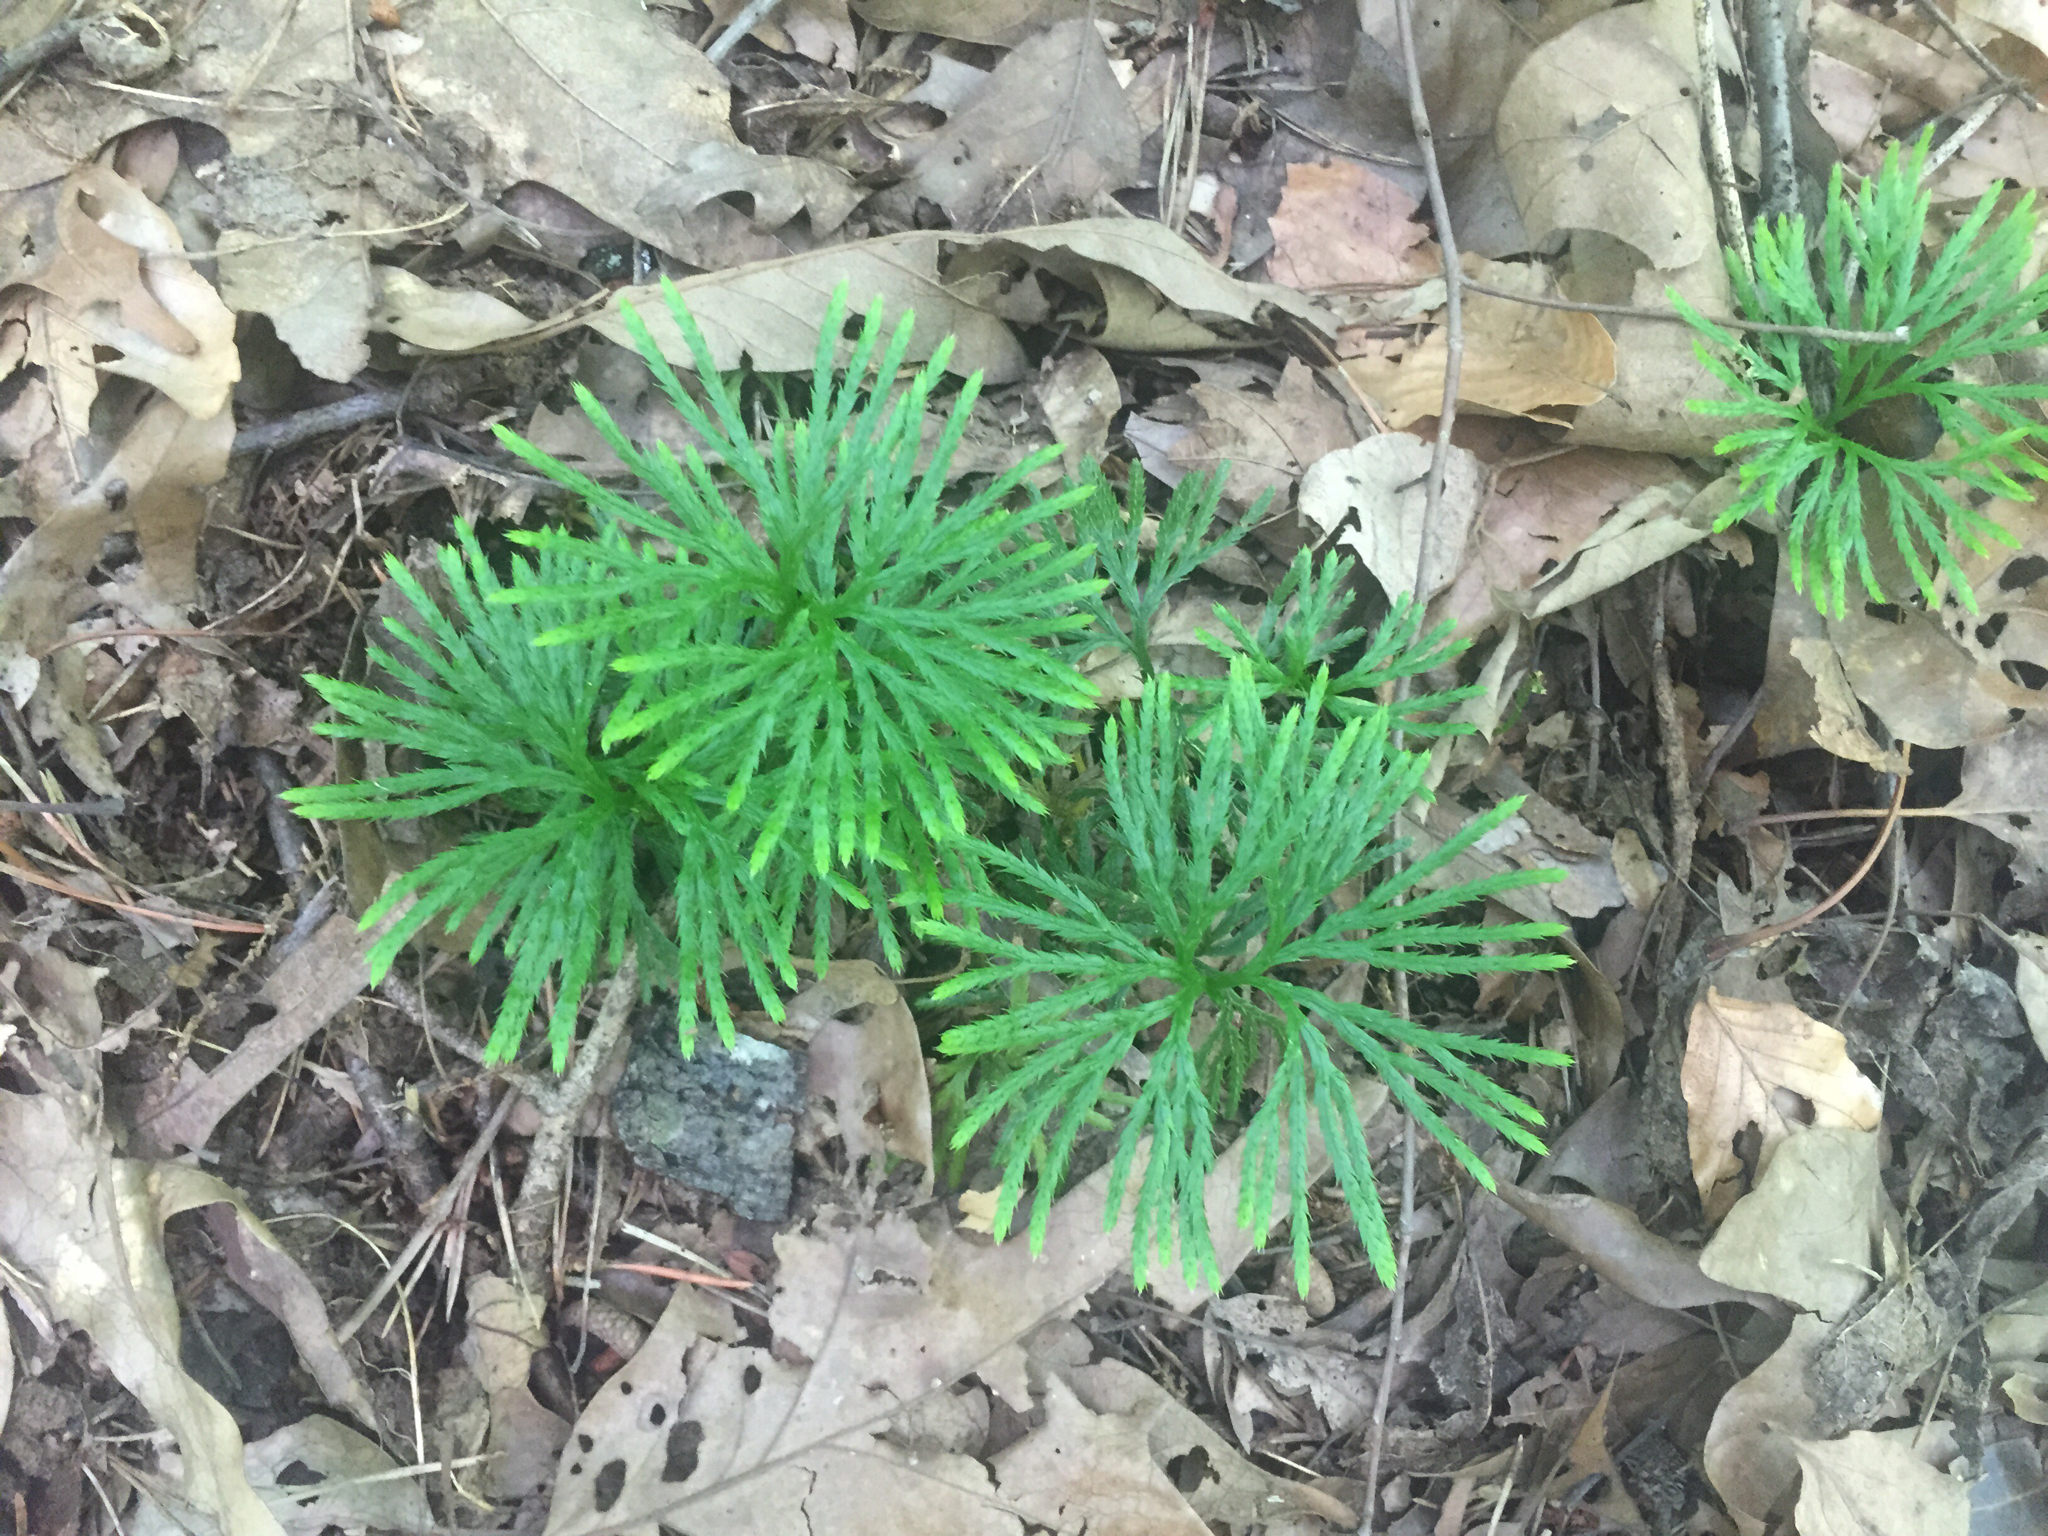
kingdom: Plantae
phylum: Tracheophyta
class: Lycopodiopsida
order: Lycopodiales
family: Lycopodiaceae
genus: Diphasiastrum
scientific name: Diphasiastrum digitatum
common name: Southern running-pine
